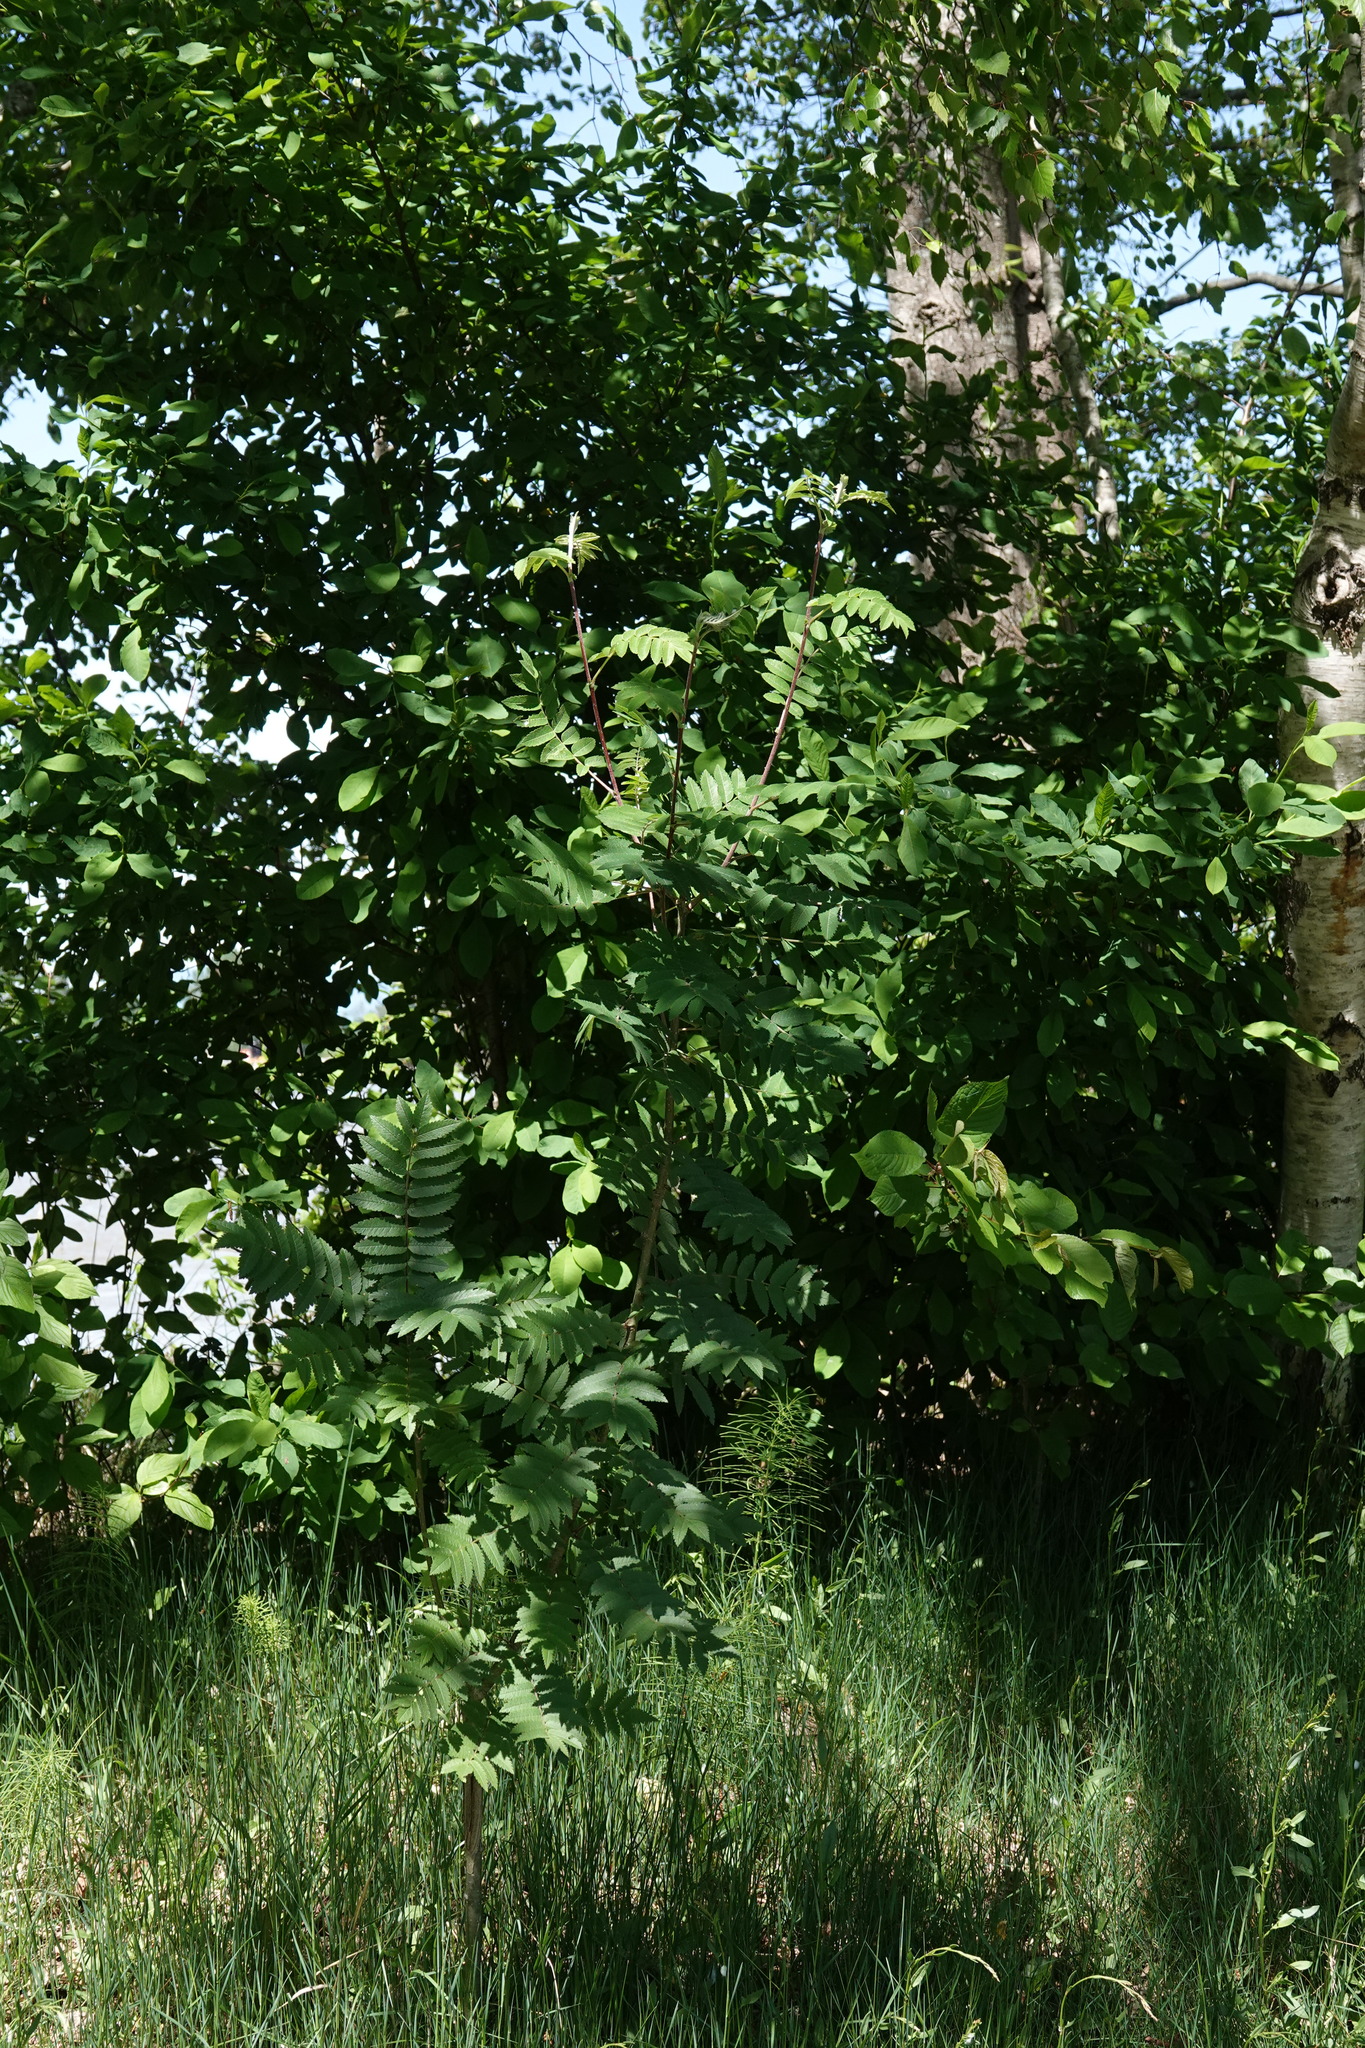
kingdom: Plantae
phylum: Tracheophyta
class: Magnoliopsida
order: Rosales
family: Rosaceae
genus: Sorbus
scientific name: Sorbus aucuparia
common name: Rowan
